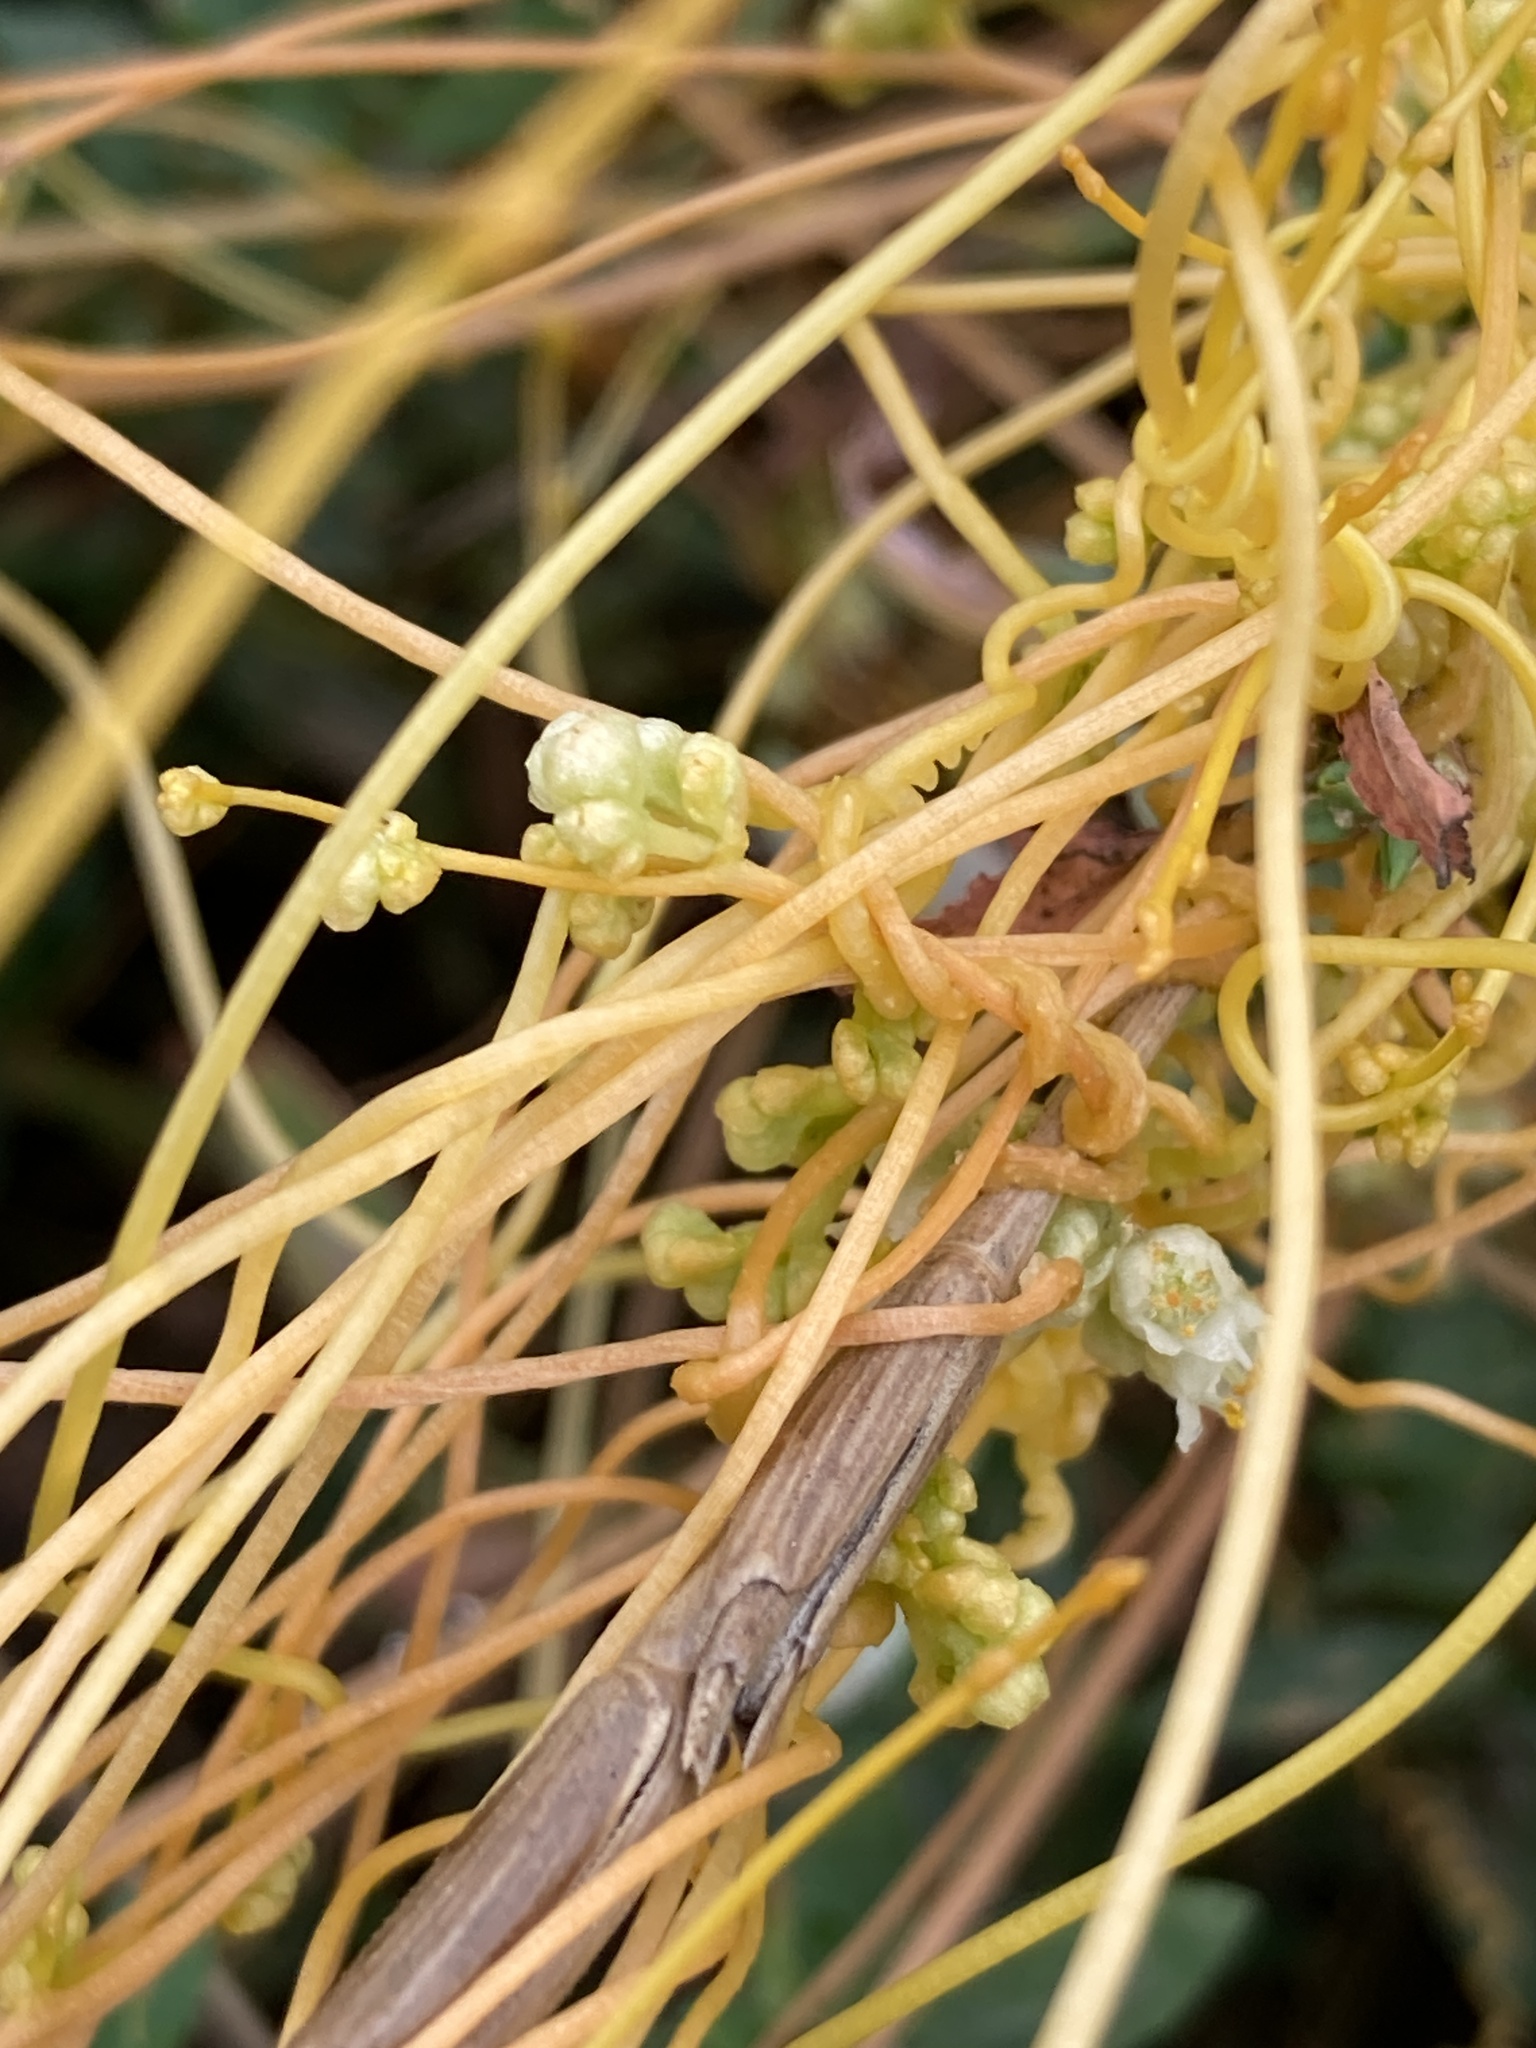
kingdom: Plantae
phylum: Tracheophyta
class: Magnoliopsida
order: Solanales
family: Convolvulaceae
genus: Cuscuta
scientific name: Cuscuta campestris
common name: Yellow dodder
